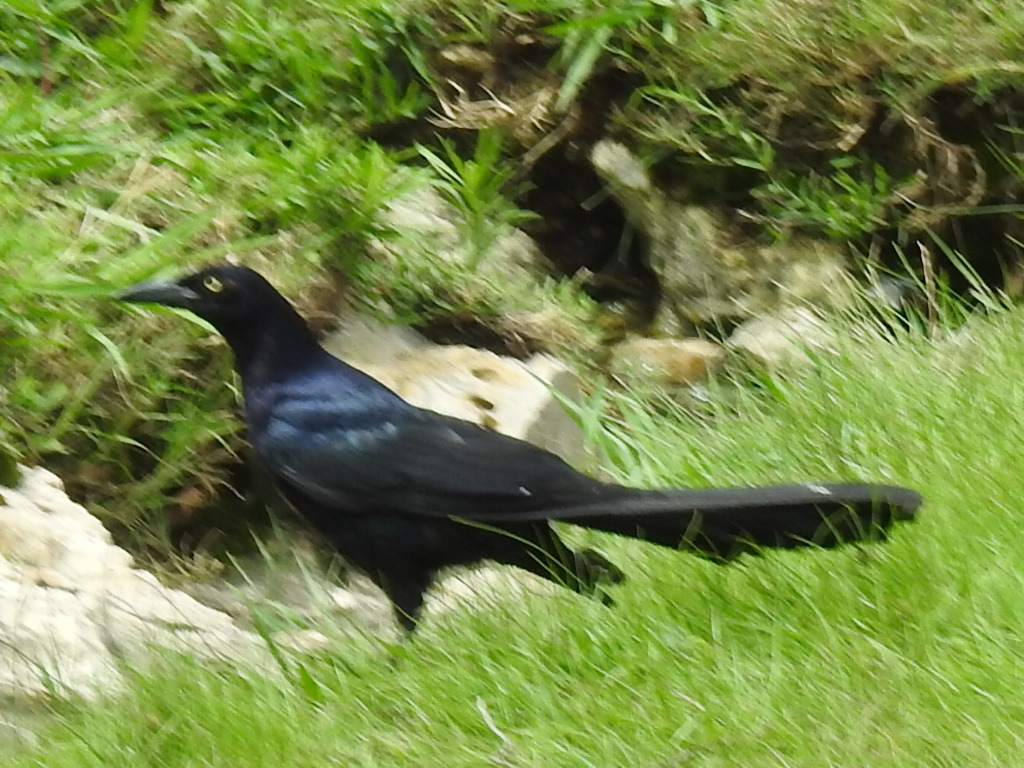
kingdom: Animalia
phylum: Chordata
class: Aves
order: Passeriformes
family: Icteridae
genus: Quiscalus
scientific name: Quiscalus mexicanus
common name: Great-tailed grackle
